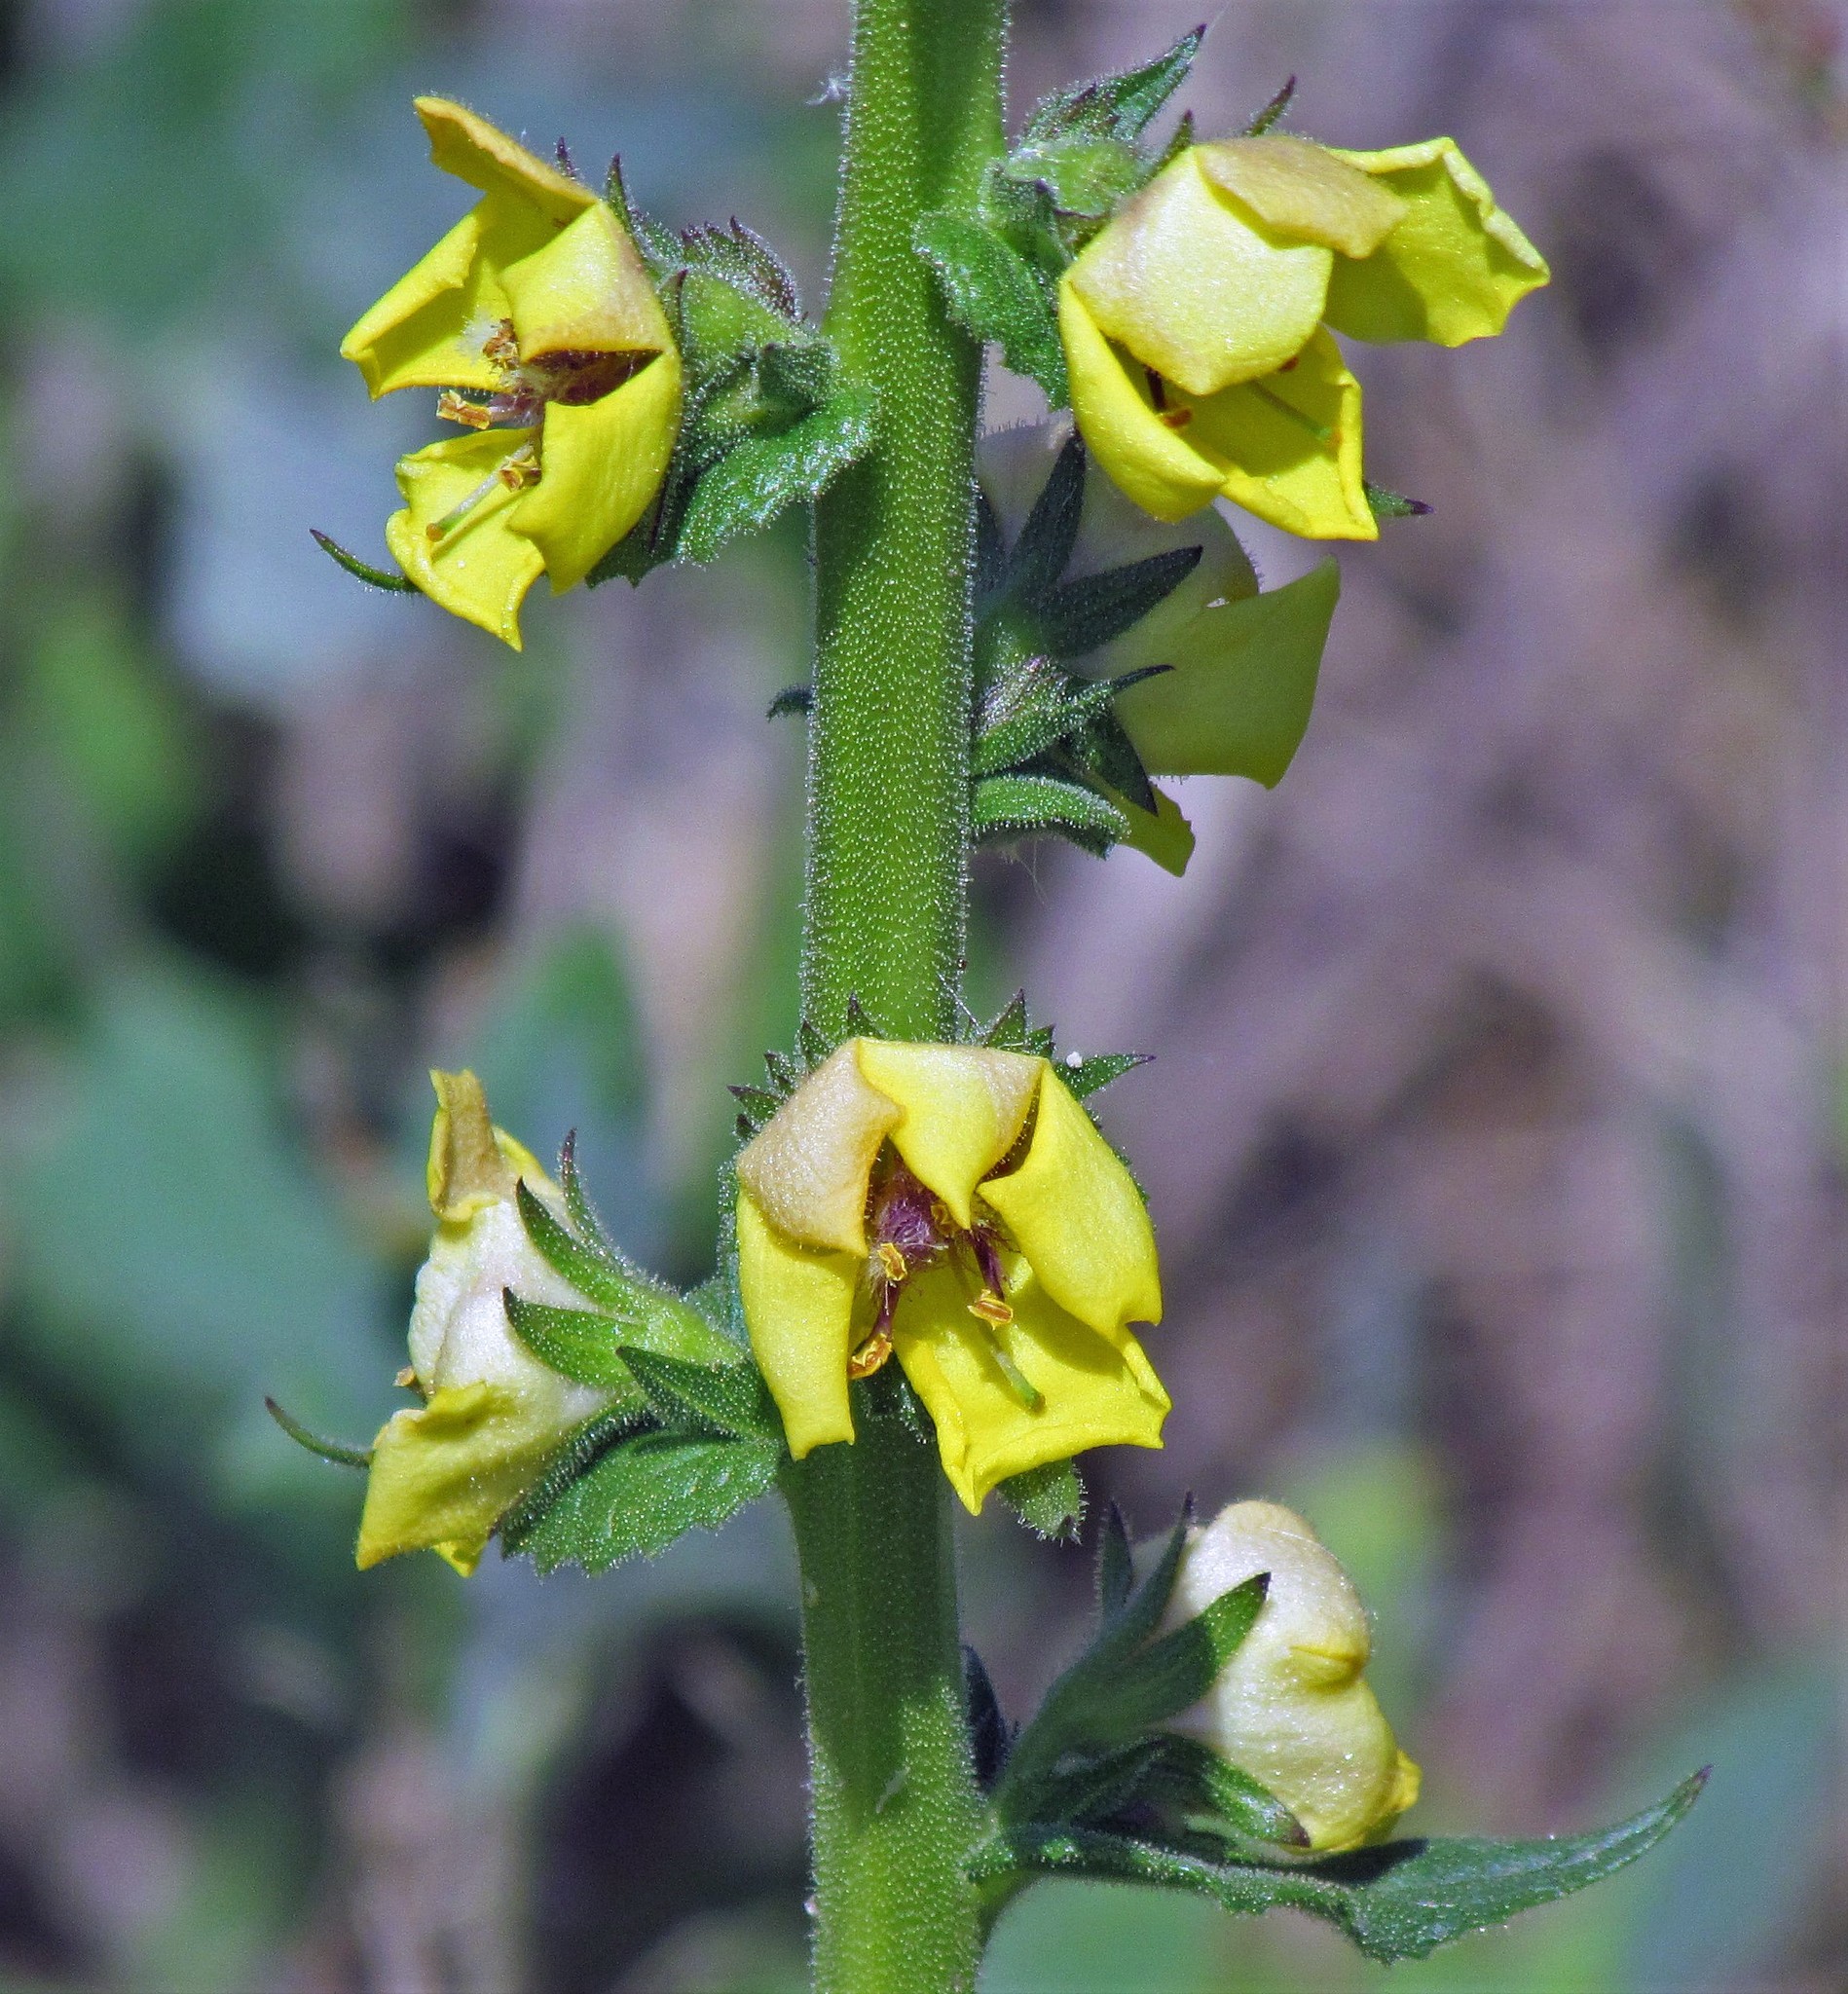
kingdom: Plantae
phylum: Tracheophyta
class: Magnoliopsida
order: Lamiales
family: Scrophulariaceae
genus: Verbascum
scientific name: Verbascum virgatum
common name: Twiggy mullein
